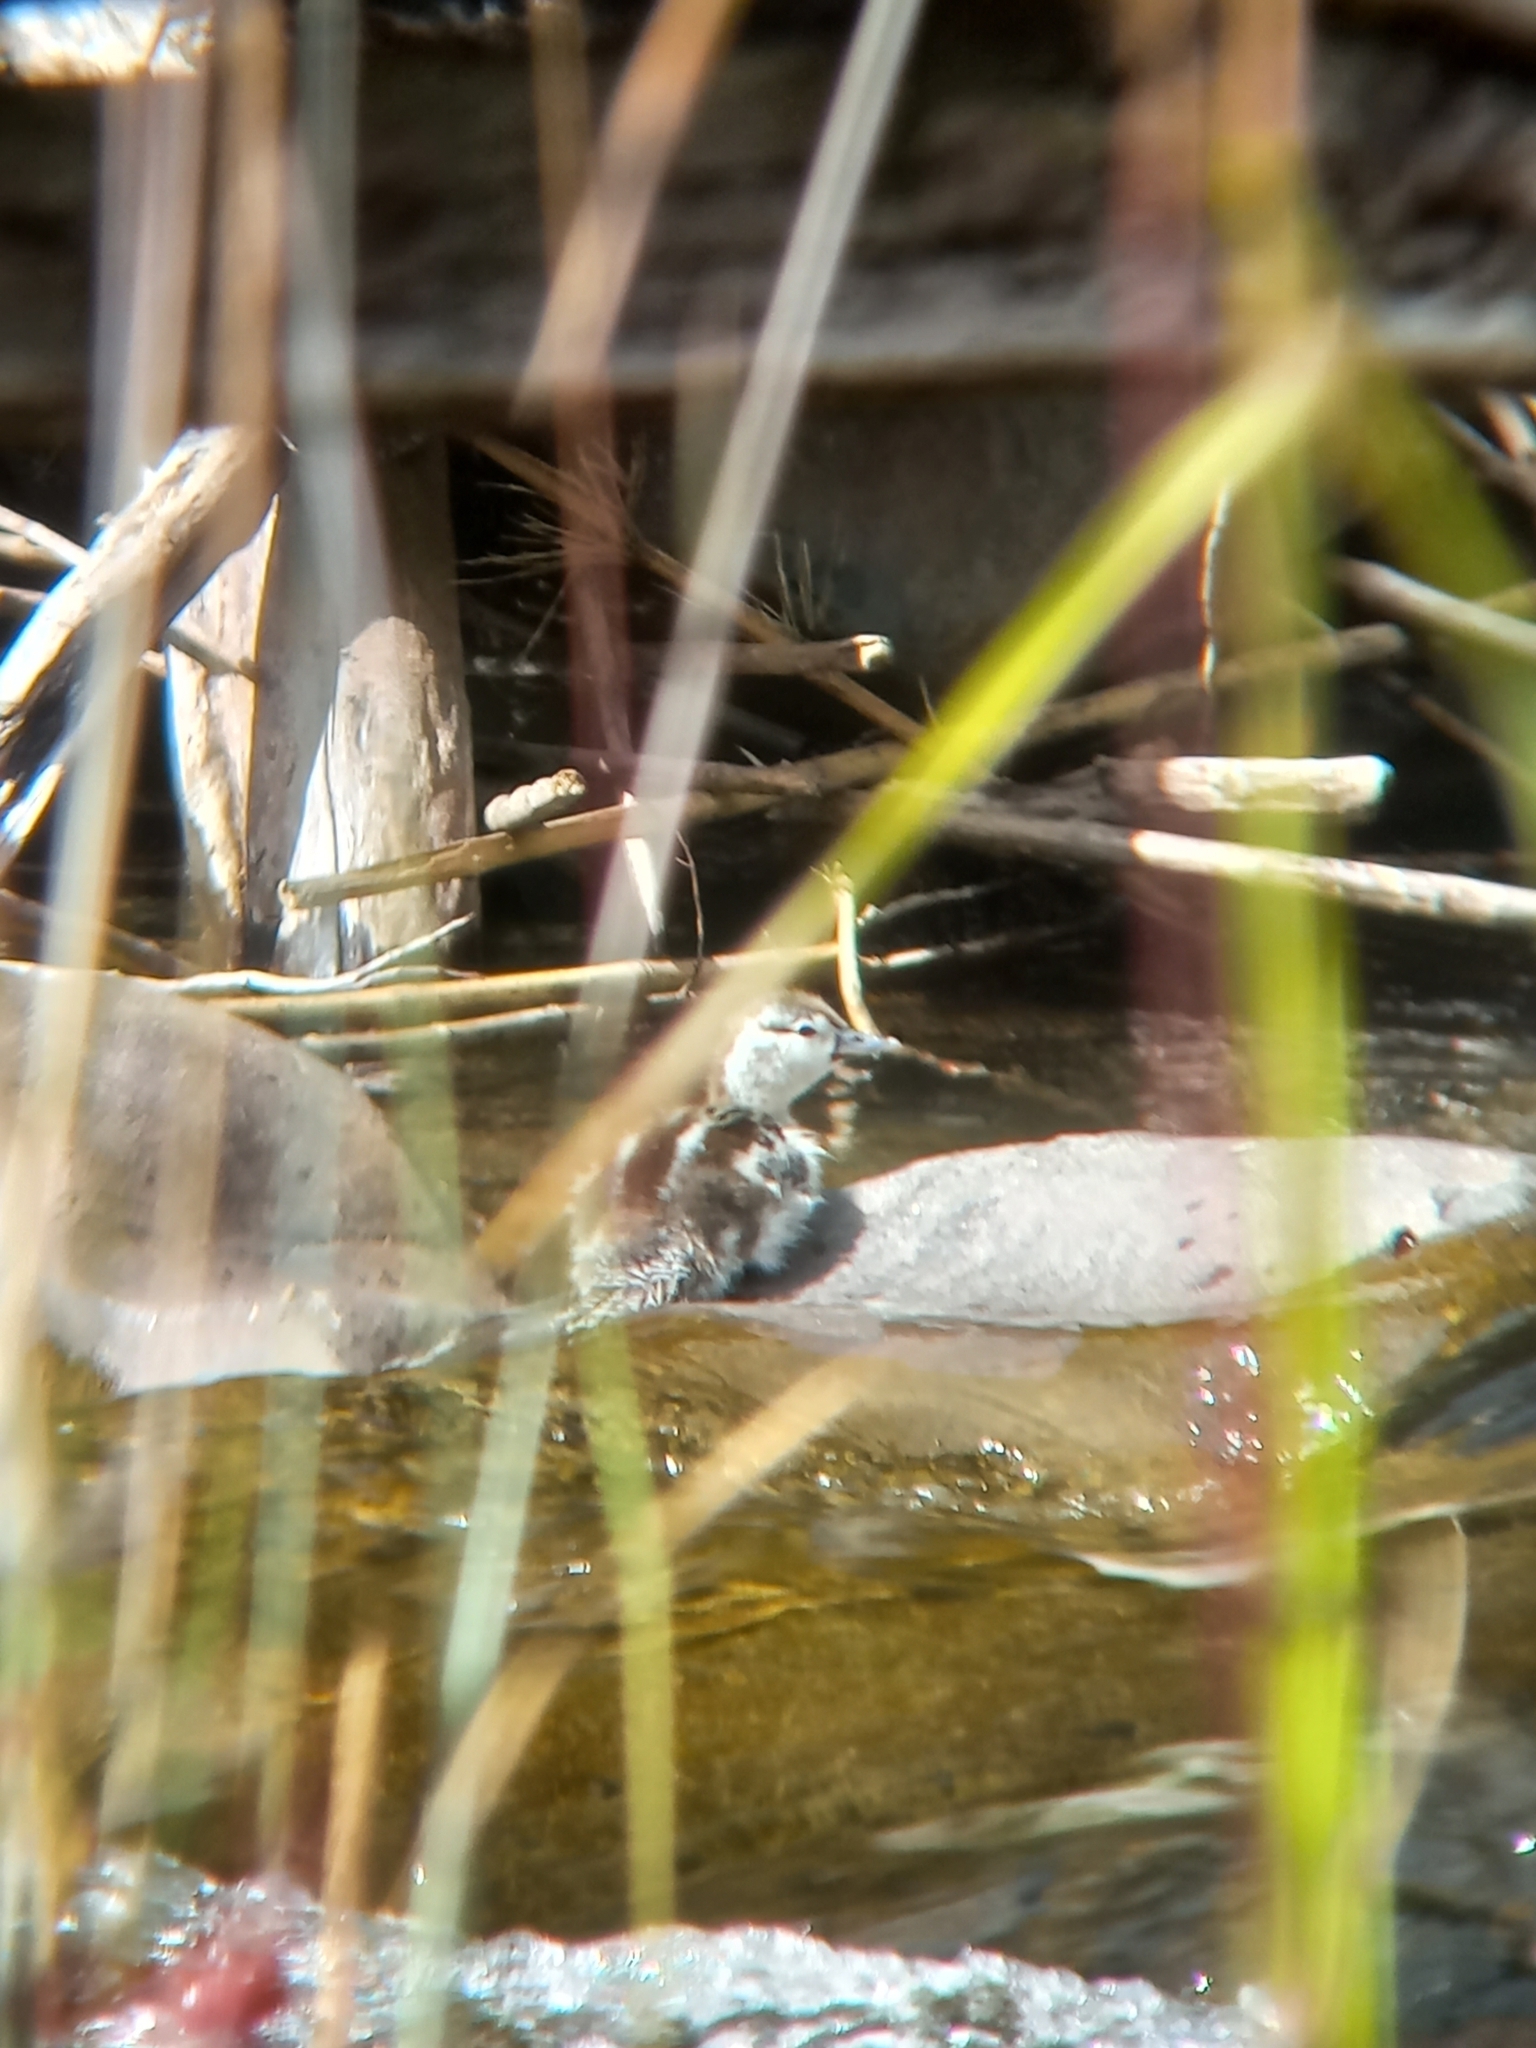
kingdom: Animalia
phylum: Chordata
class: Aves
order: Anseriformes
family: Anatidae
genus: Merganetta
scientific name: Merganetta armata
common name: Torrent duck
